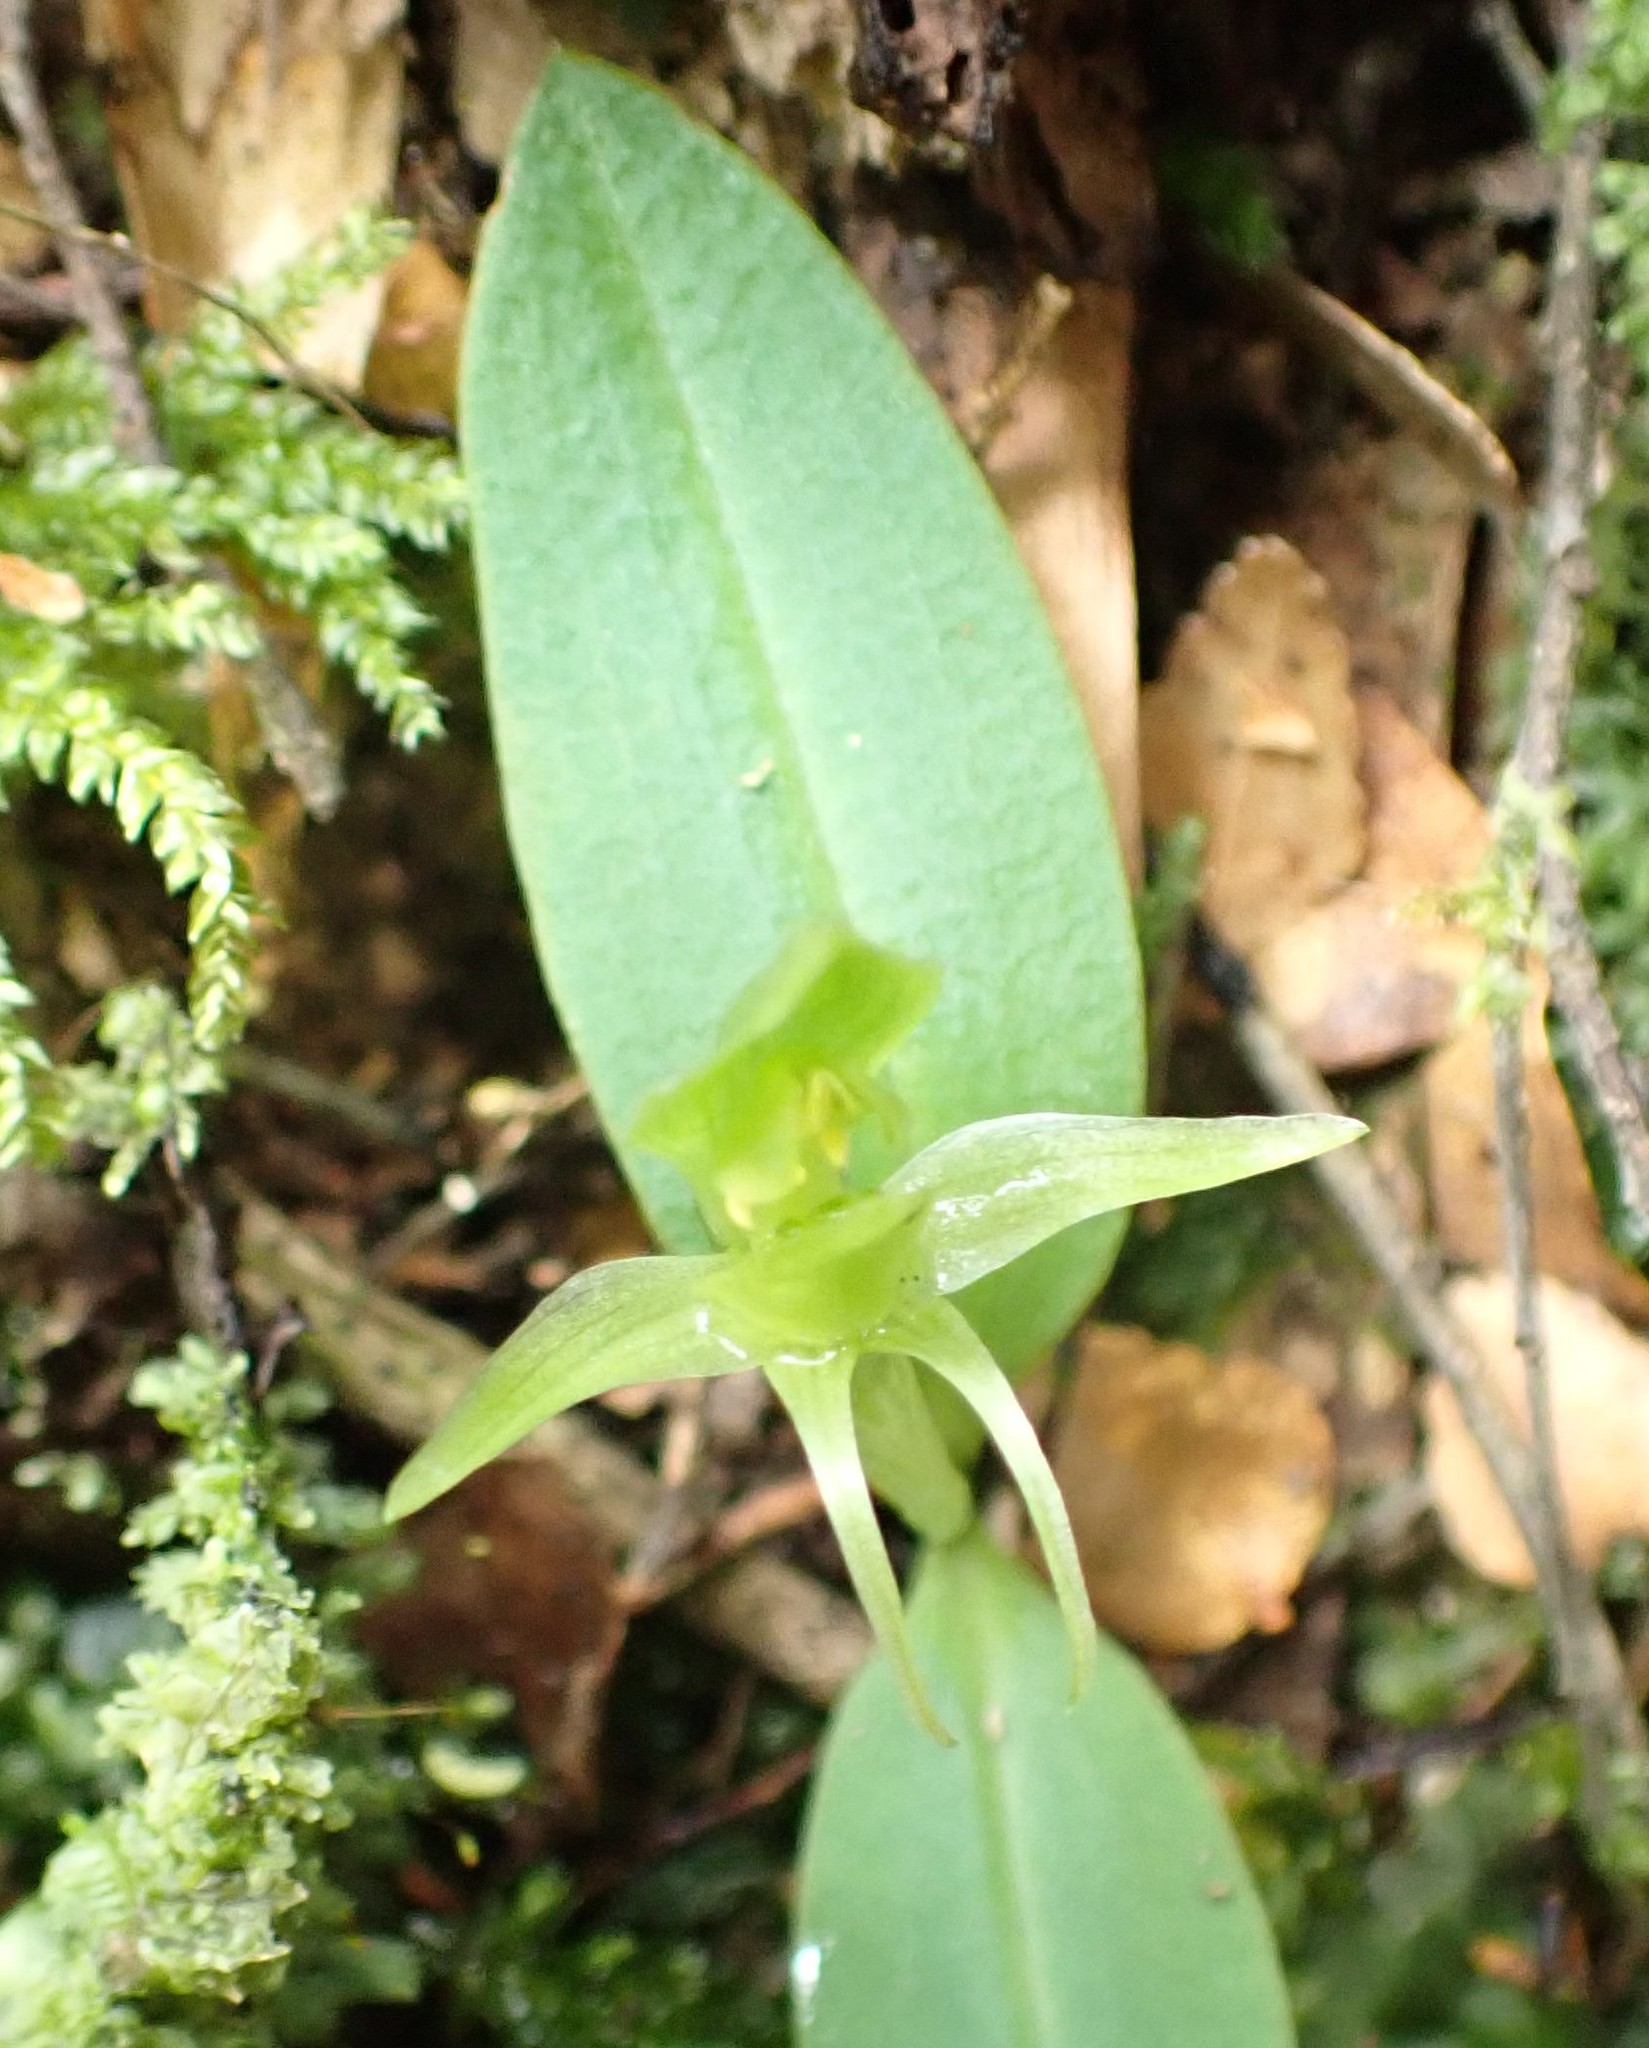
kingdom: Plantae
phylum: Tracheophyta
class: Liliopsida
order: Asparagales
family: Orchidaceae
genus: Chiloglottis
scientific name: Chiloglottis cornuta
